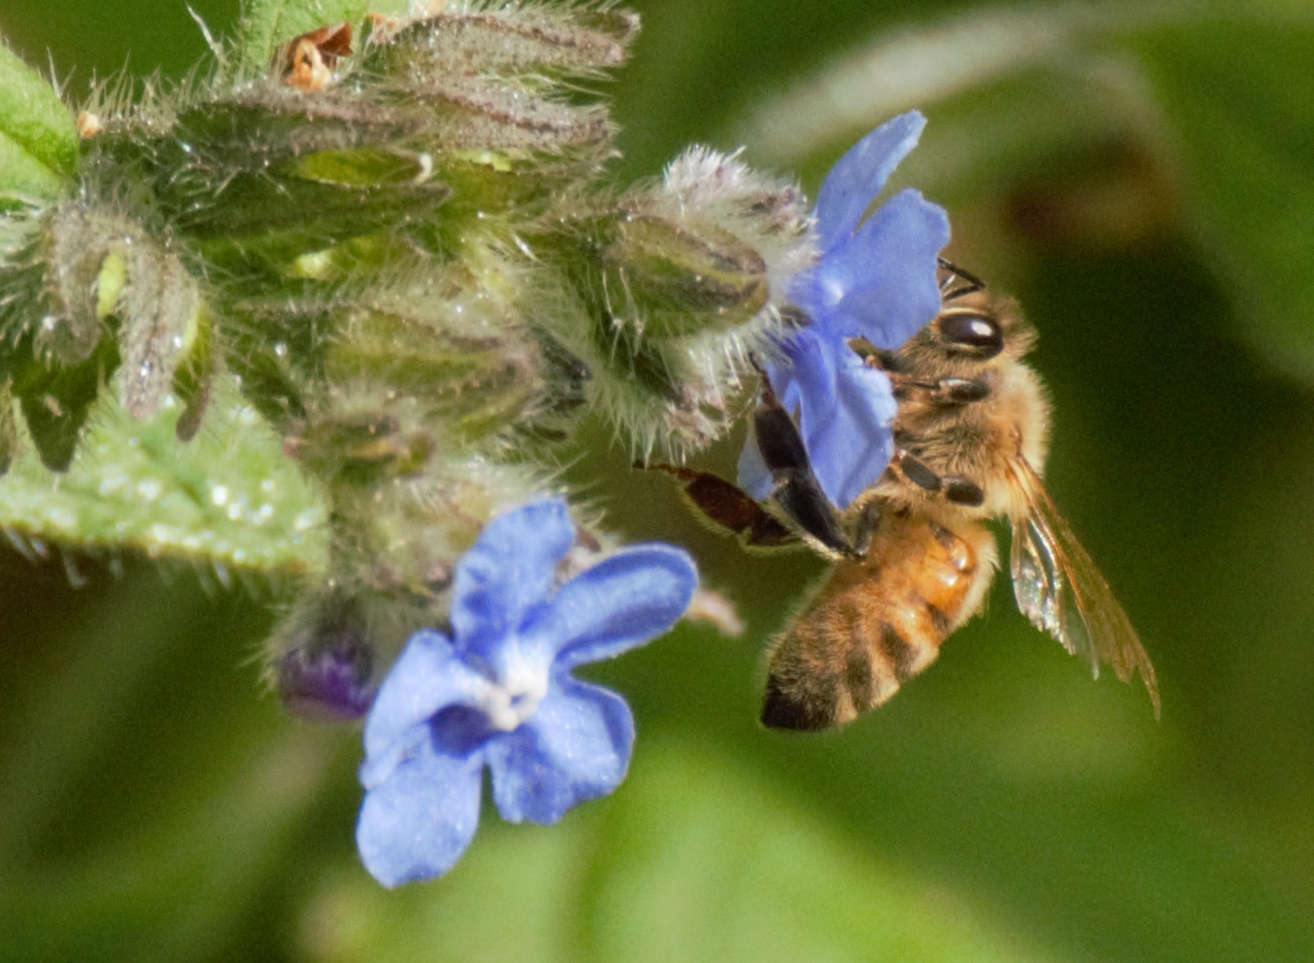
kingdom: Animalia
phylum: Arthropoda
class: Insecta
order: Hymenoptera
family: Apidae
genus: Apis
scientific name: Apis mellifera
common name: Honey bee
